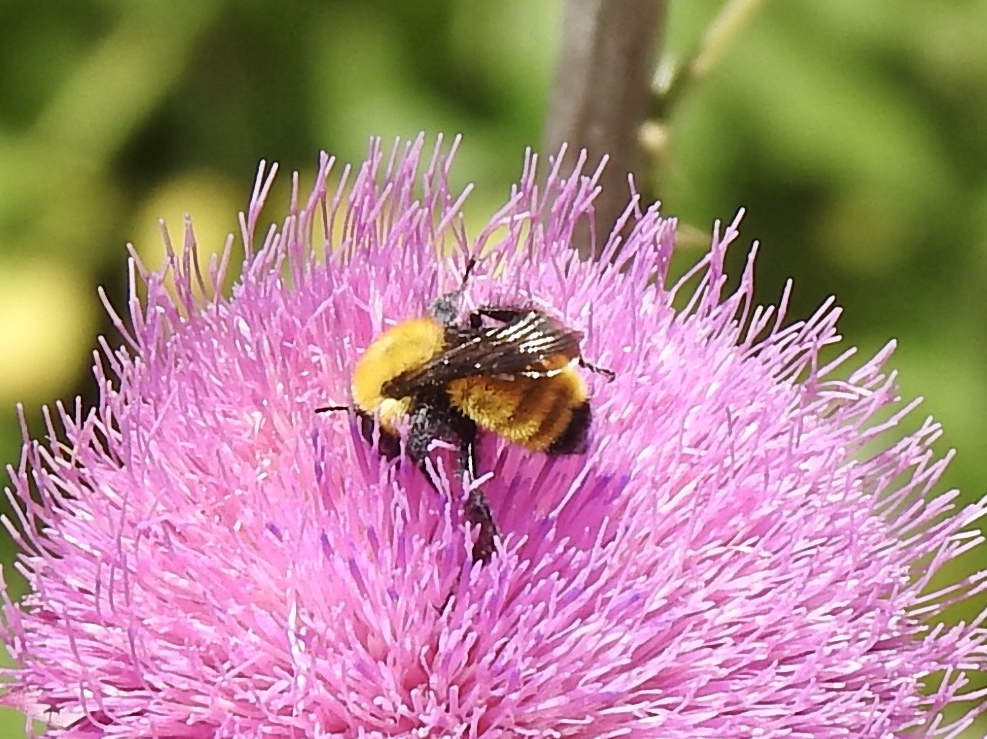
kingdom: Animalia
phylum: Arthropoda
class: Insecta
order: Hymenoptera
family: Apidae
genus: Bombus
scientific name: Bombus fervidus
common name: Yellow bumble bee
